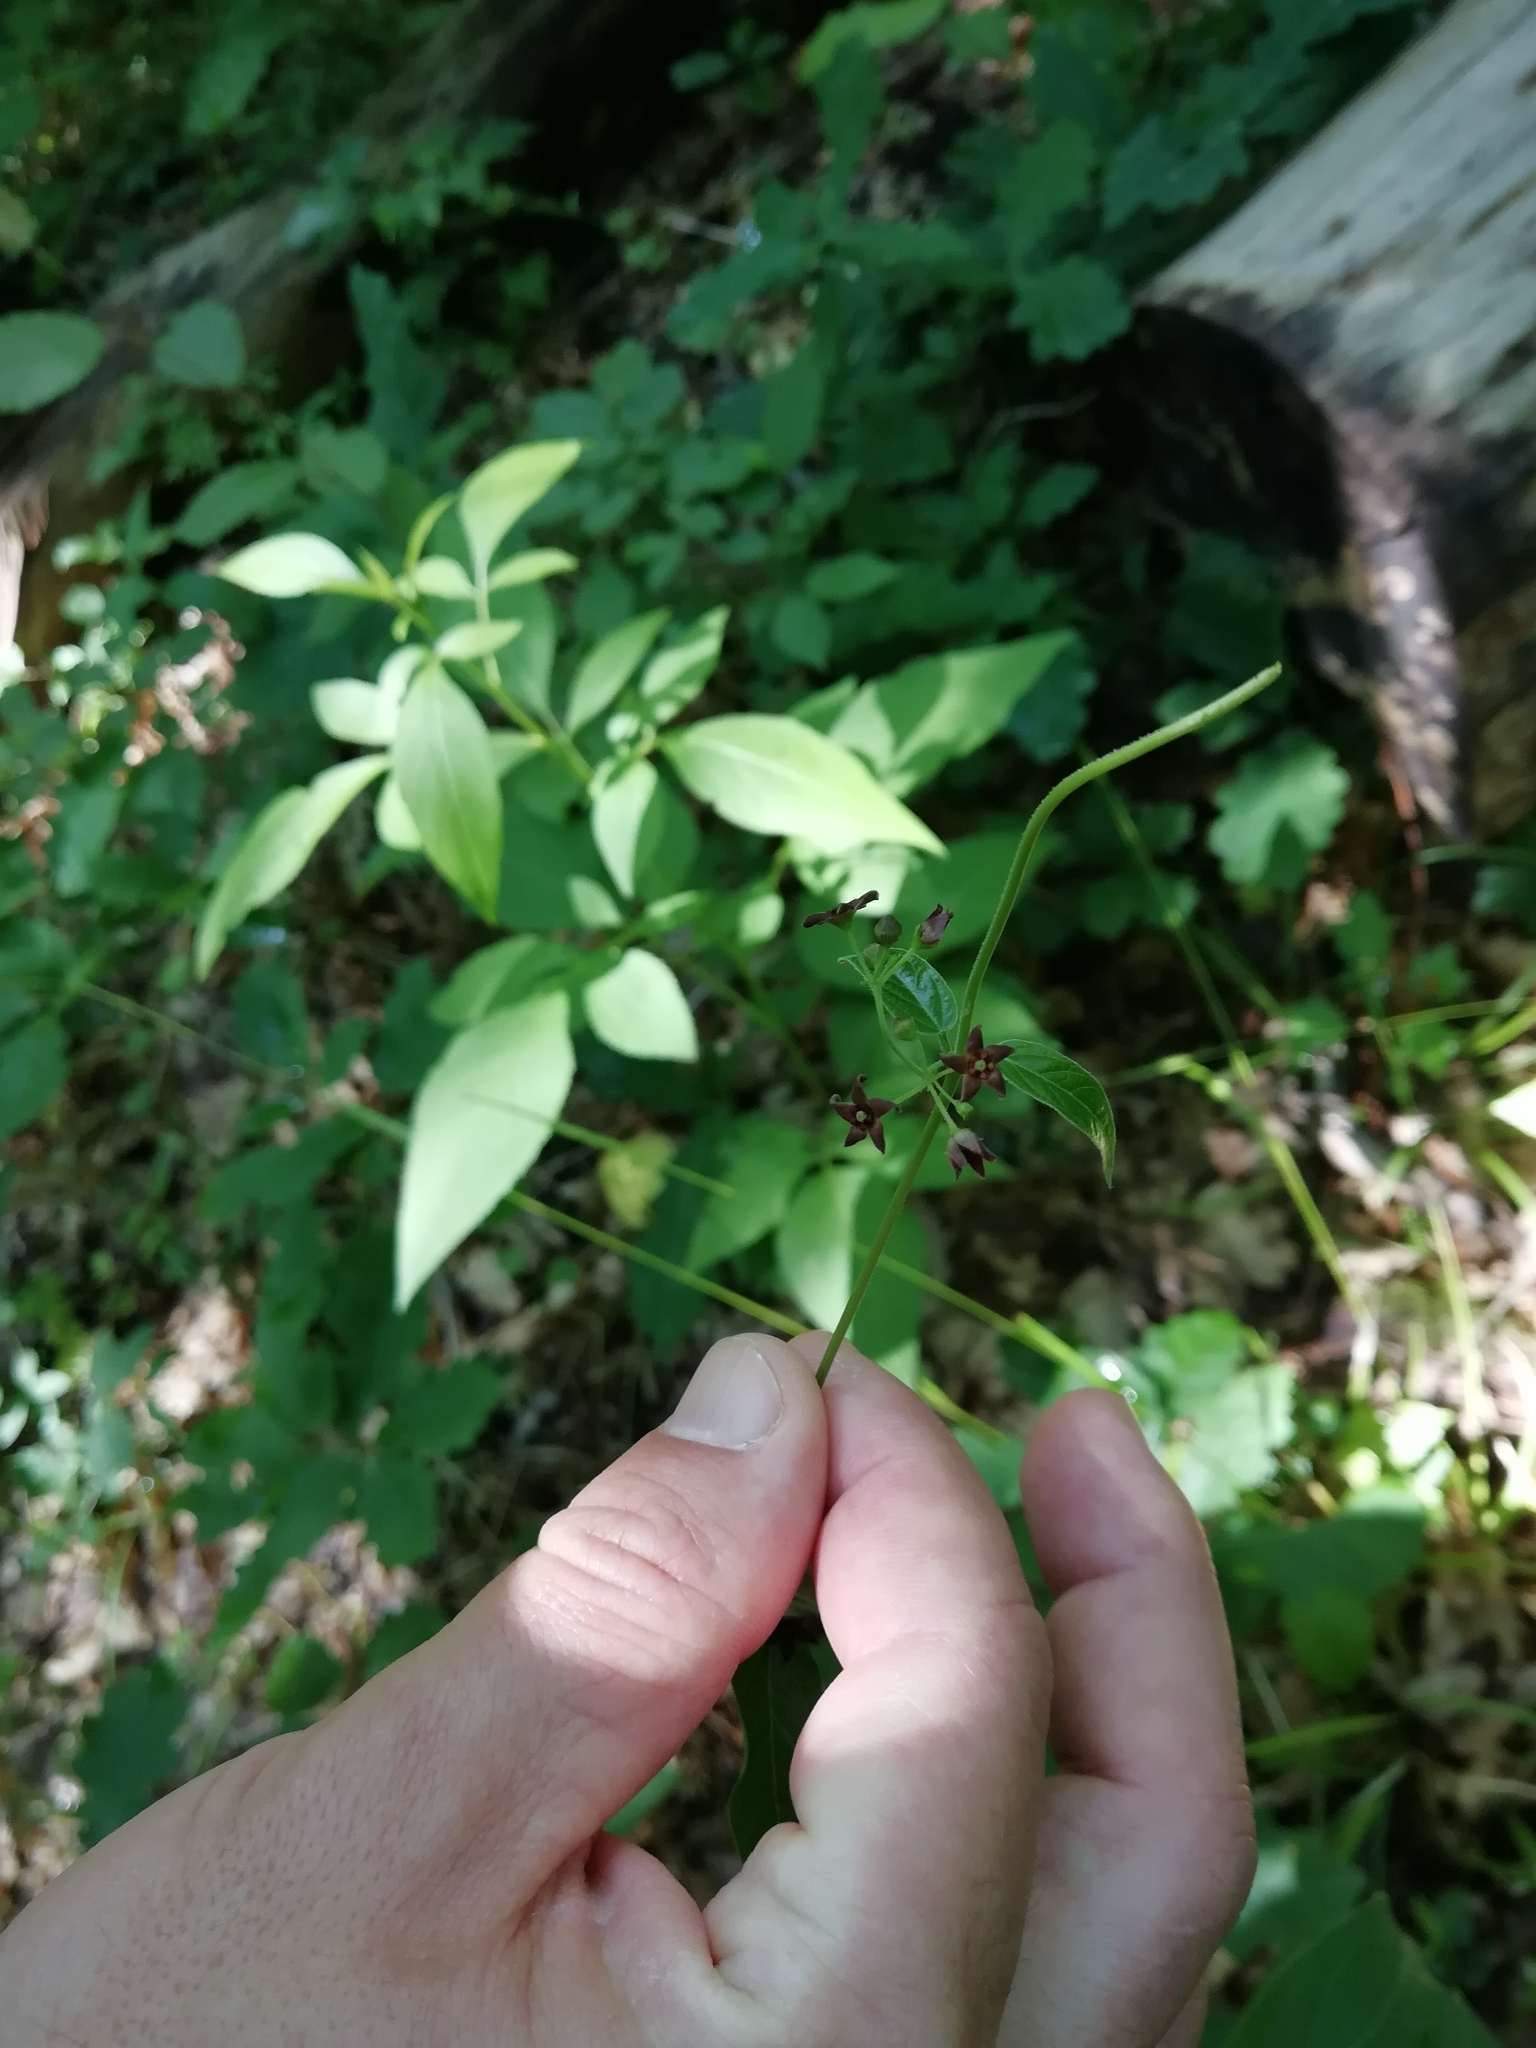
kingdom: Plantae
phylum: Tracheophyta
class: Magnoliopsida
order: Gentianales
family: Apocynaceae
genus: Vincetoxicum
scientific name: Vincetoxicum scandens
